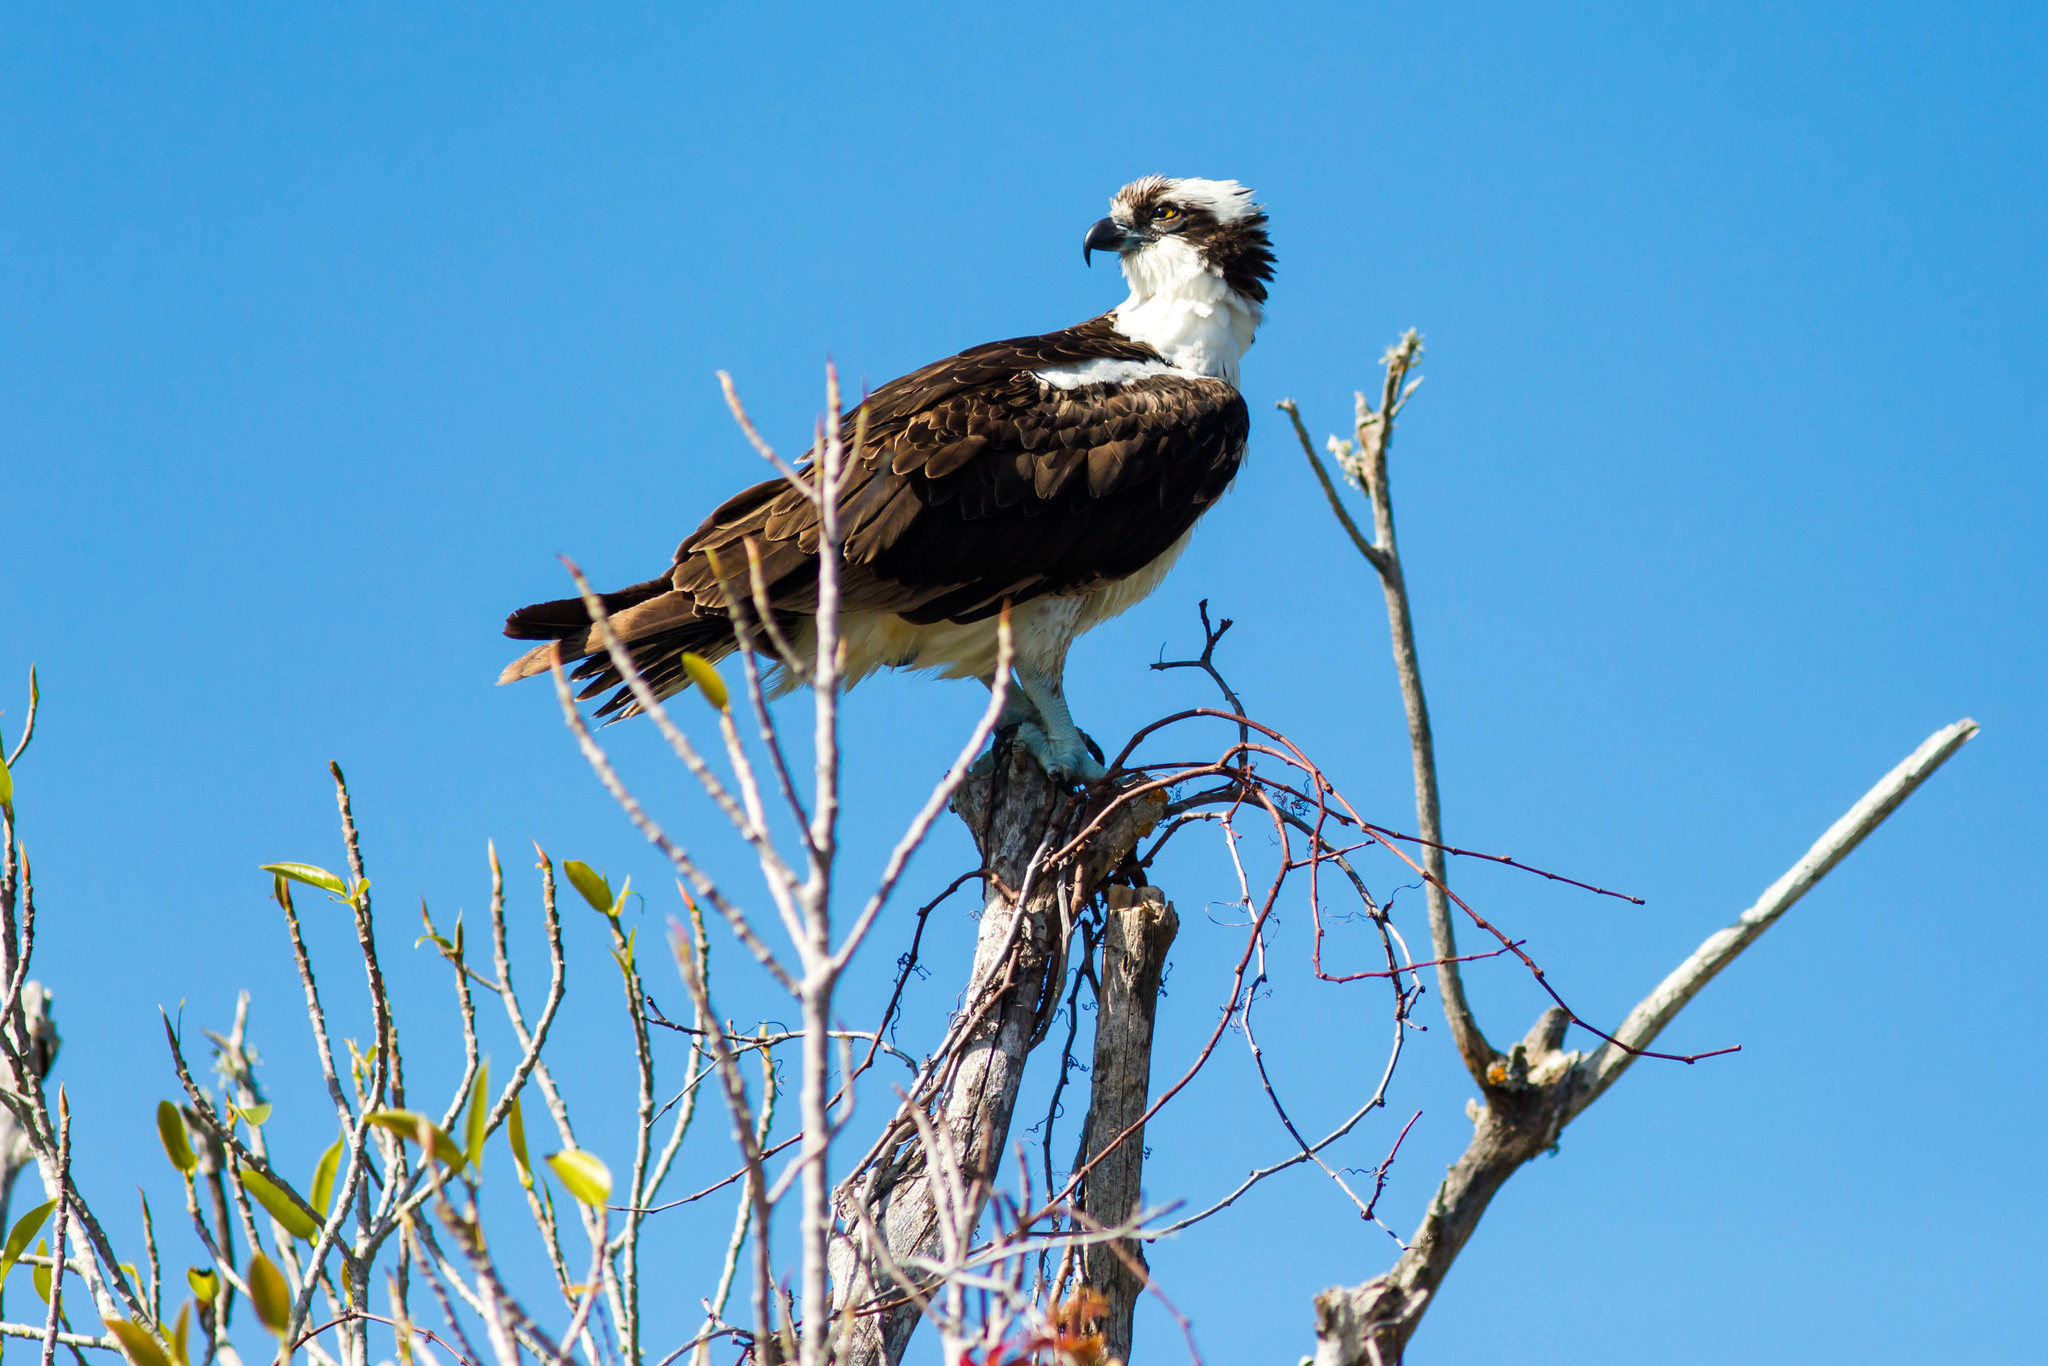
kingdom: Animalia
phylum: Chordata
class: Aves
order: Accipitriformes
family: Pandionidae
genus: Pandion
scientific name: Pandion haliaetus
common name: Osprey
